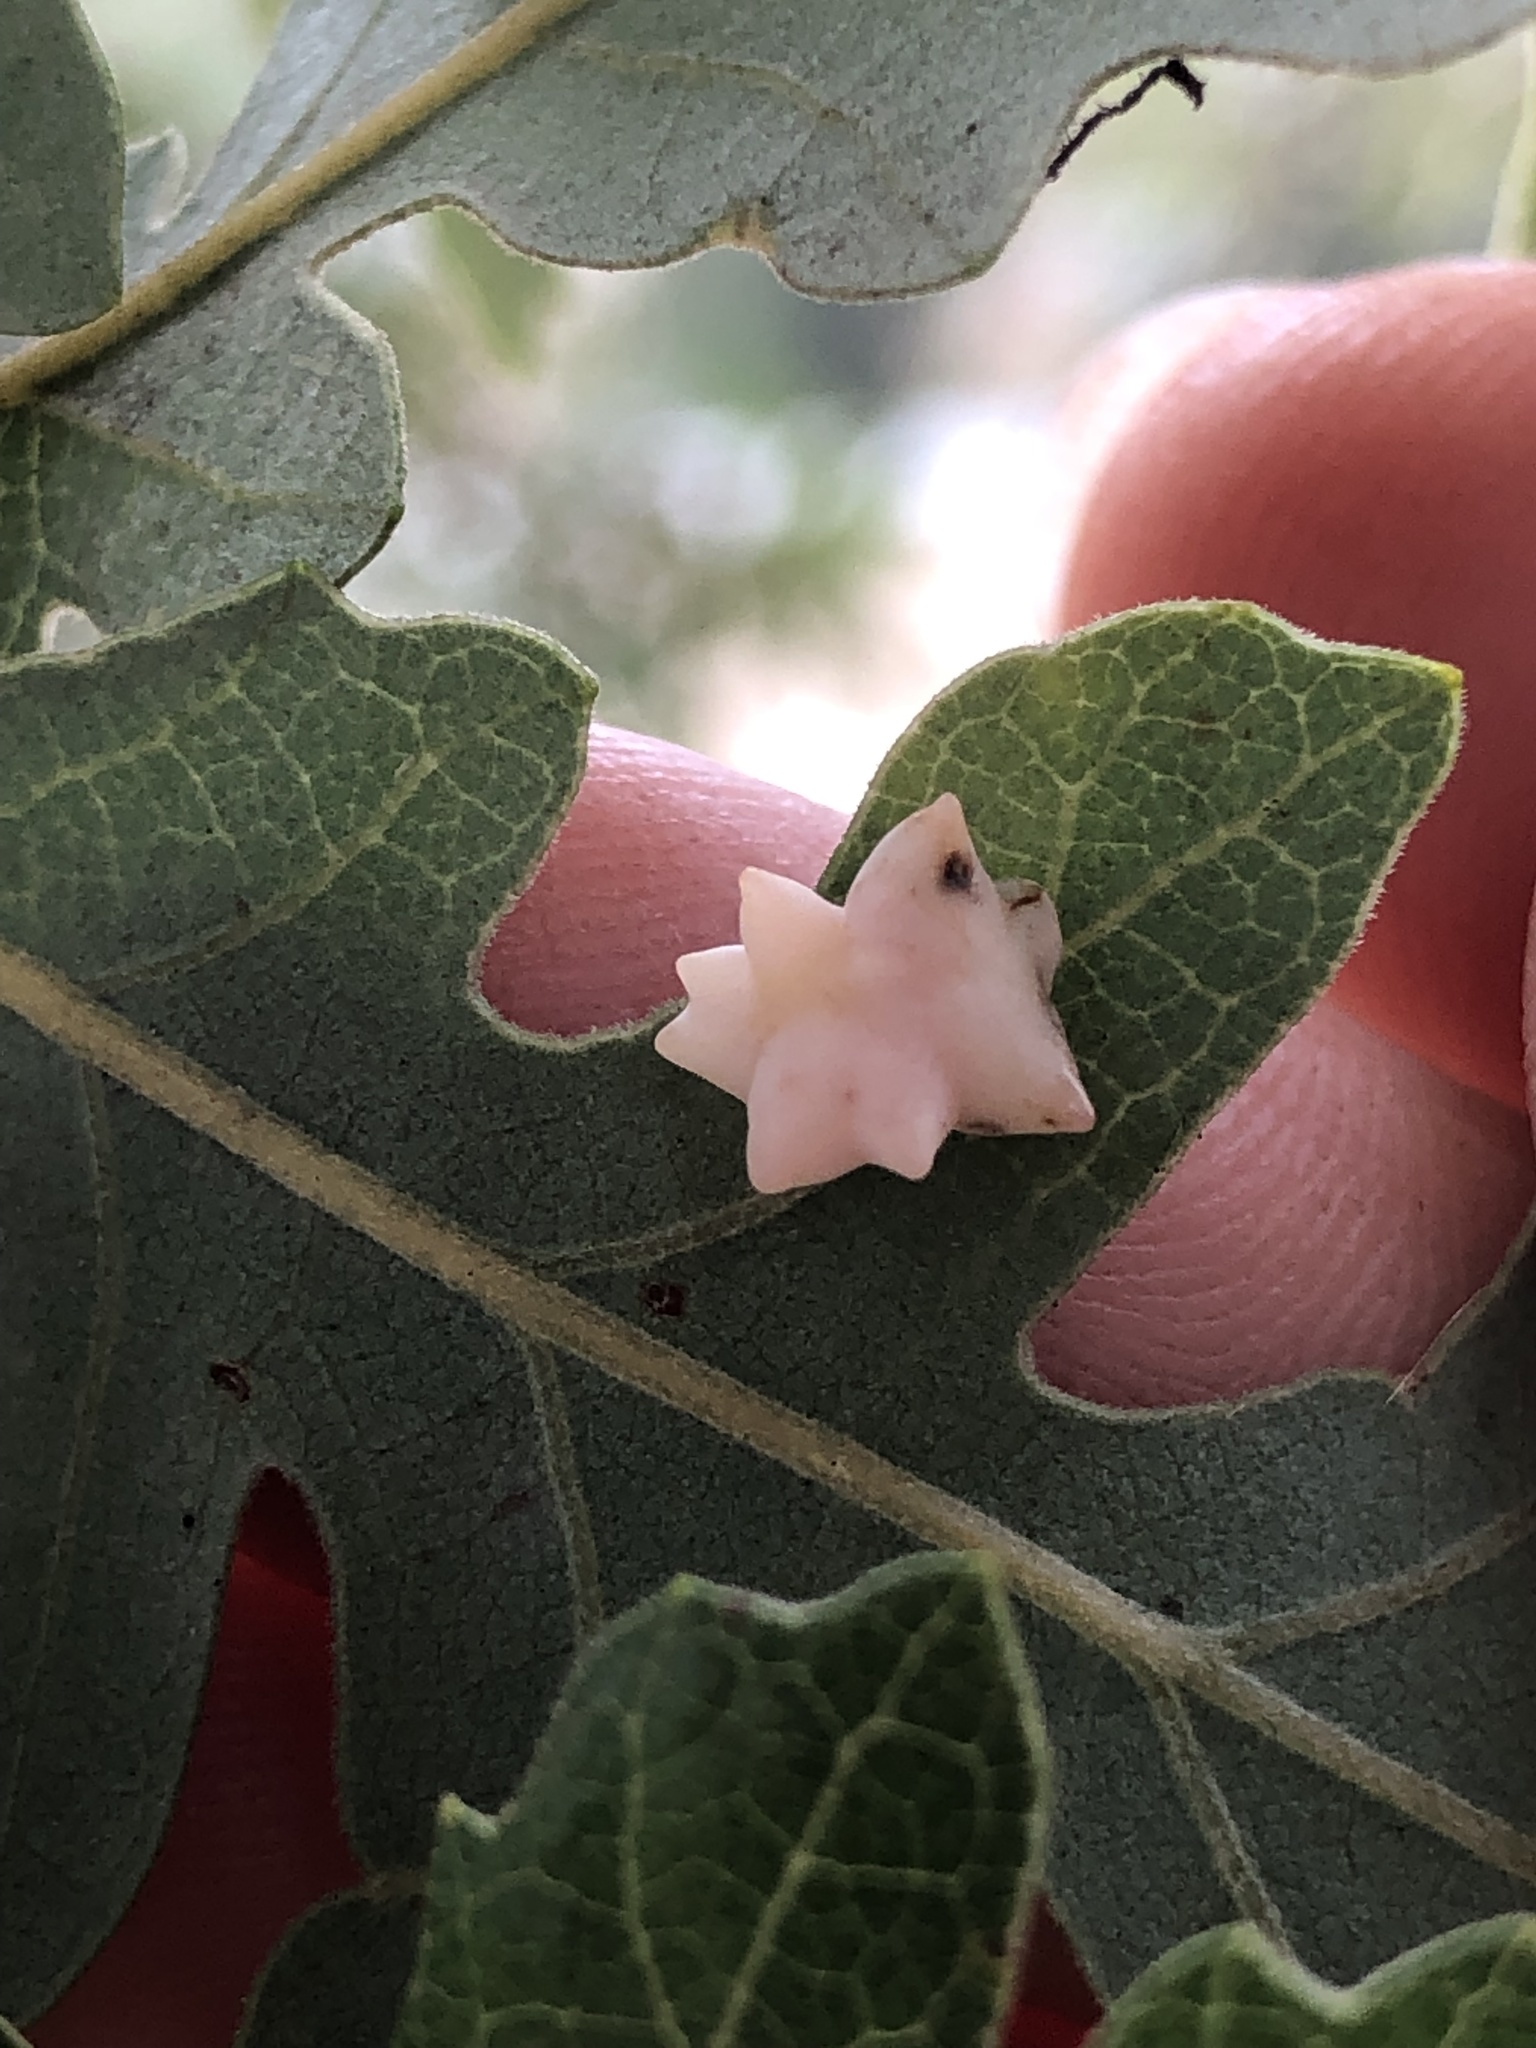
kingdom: Animalia
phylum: Arthropoda
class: Insecta
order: Hymenoptera
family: Cynipidae
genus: Cynips
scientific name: Cynips douglasi
